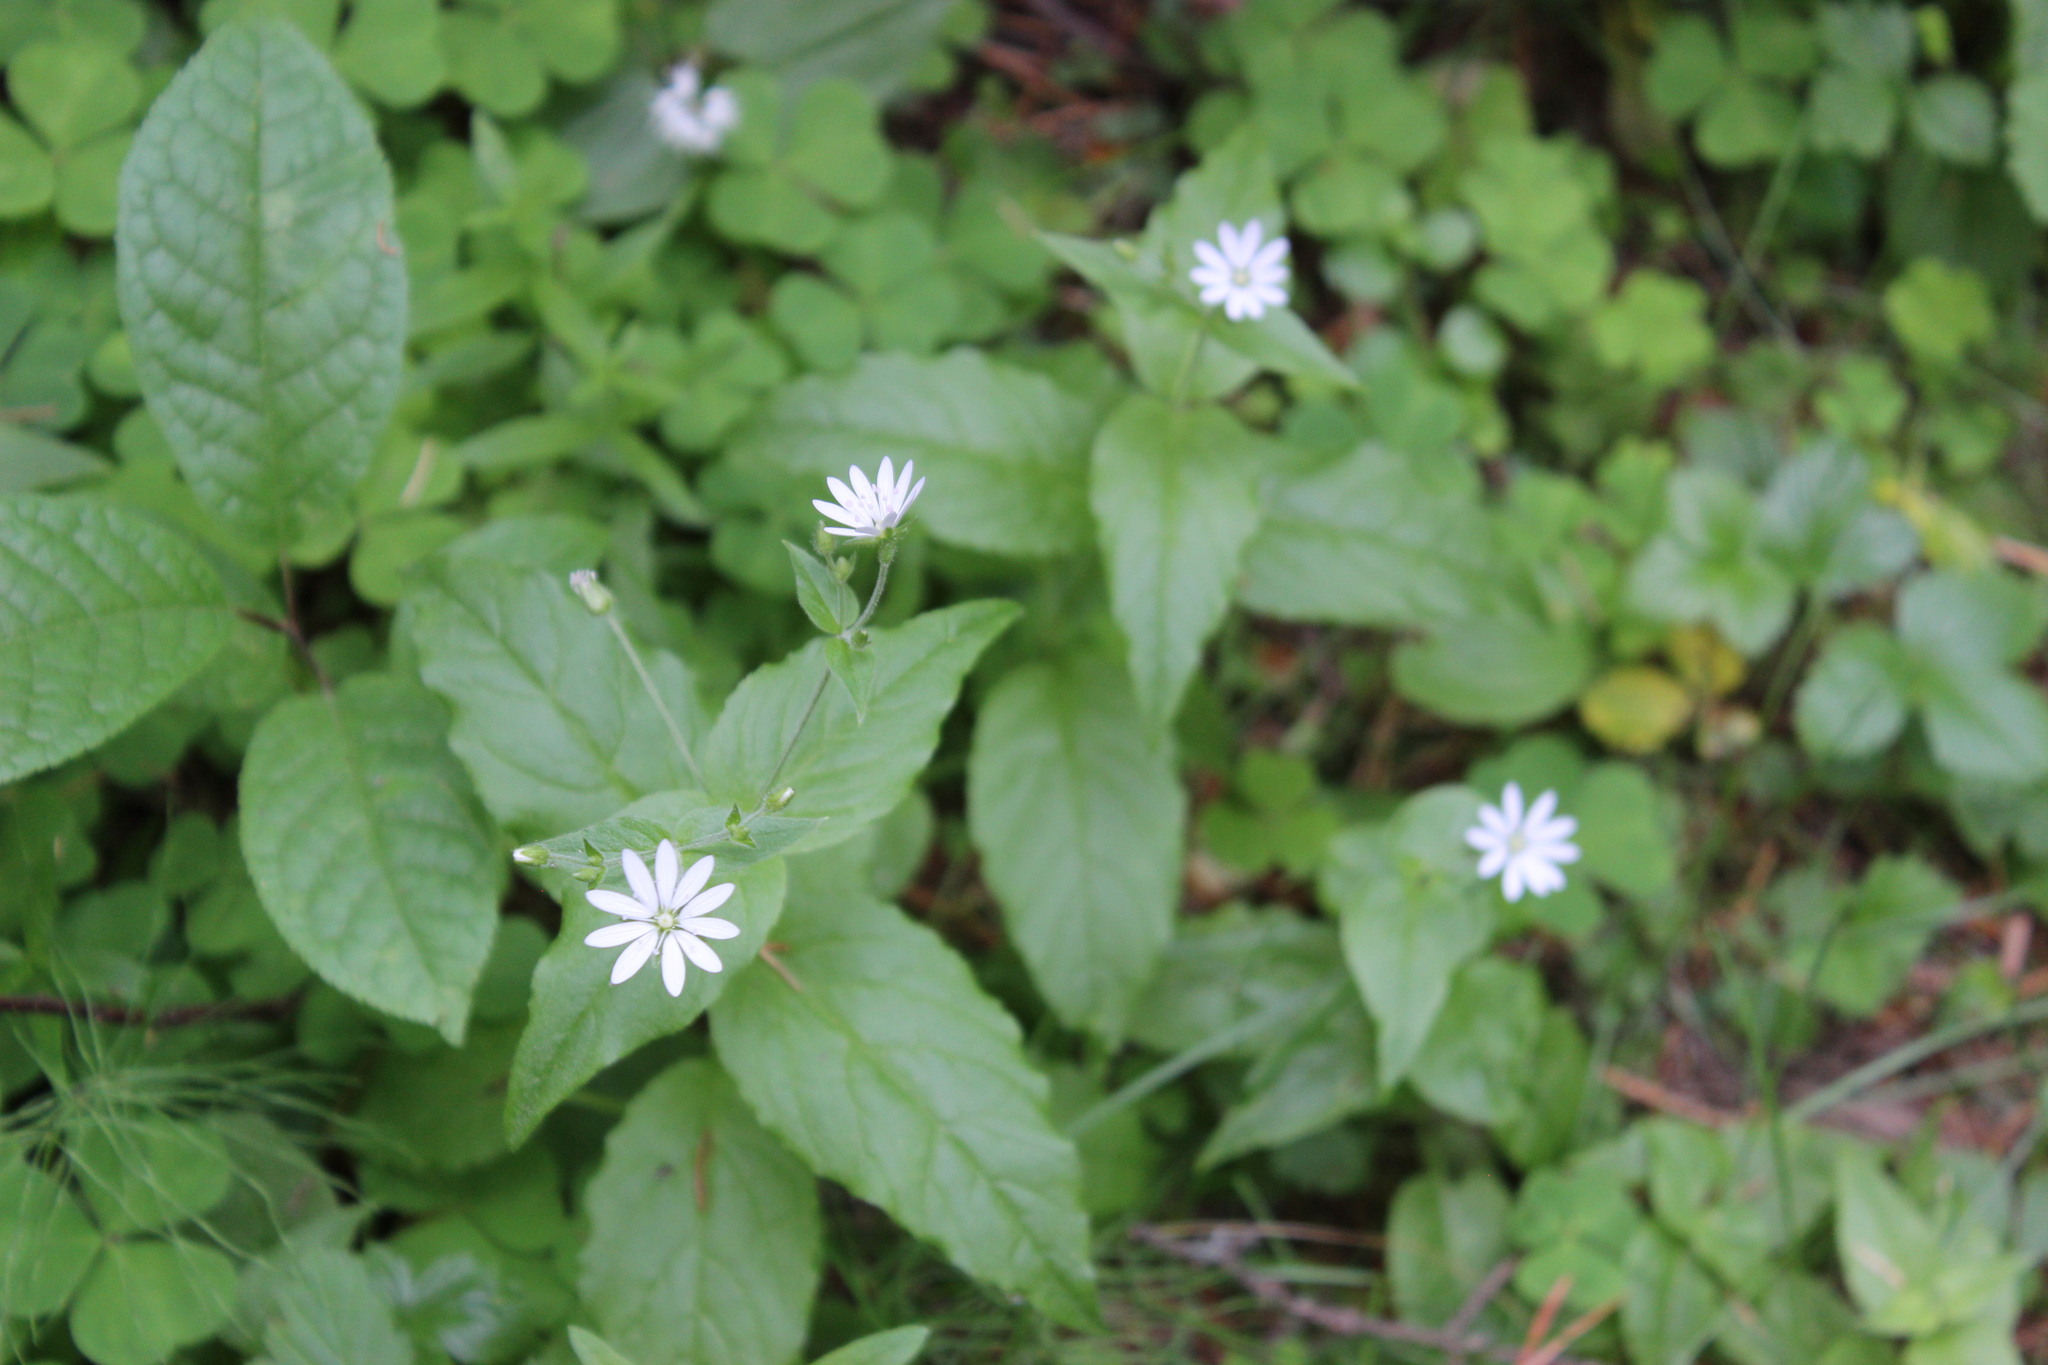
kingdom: Plantae
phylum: Tracheophyta
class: Magnoliopsida
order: Caryophyllales
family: Caryophyllaceae
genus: Stellaria
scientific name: Stellaria bungeana
